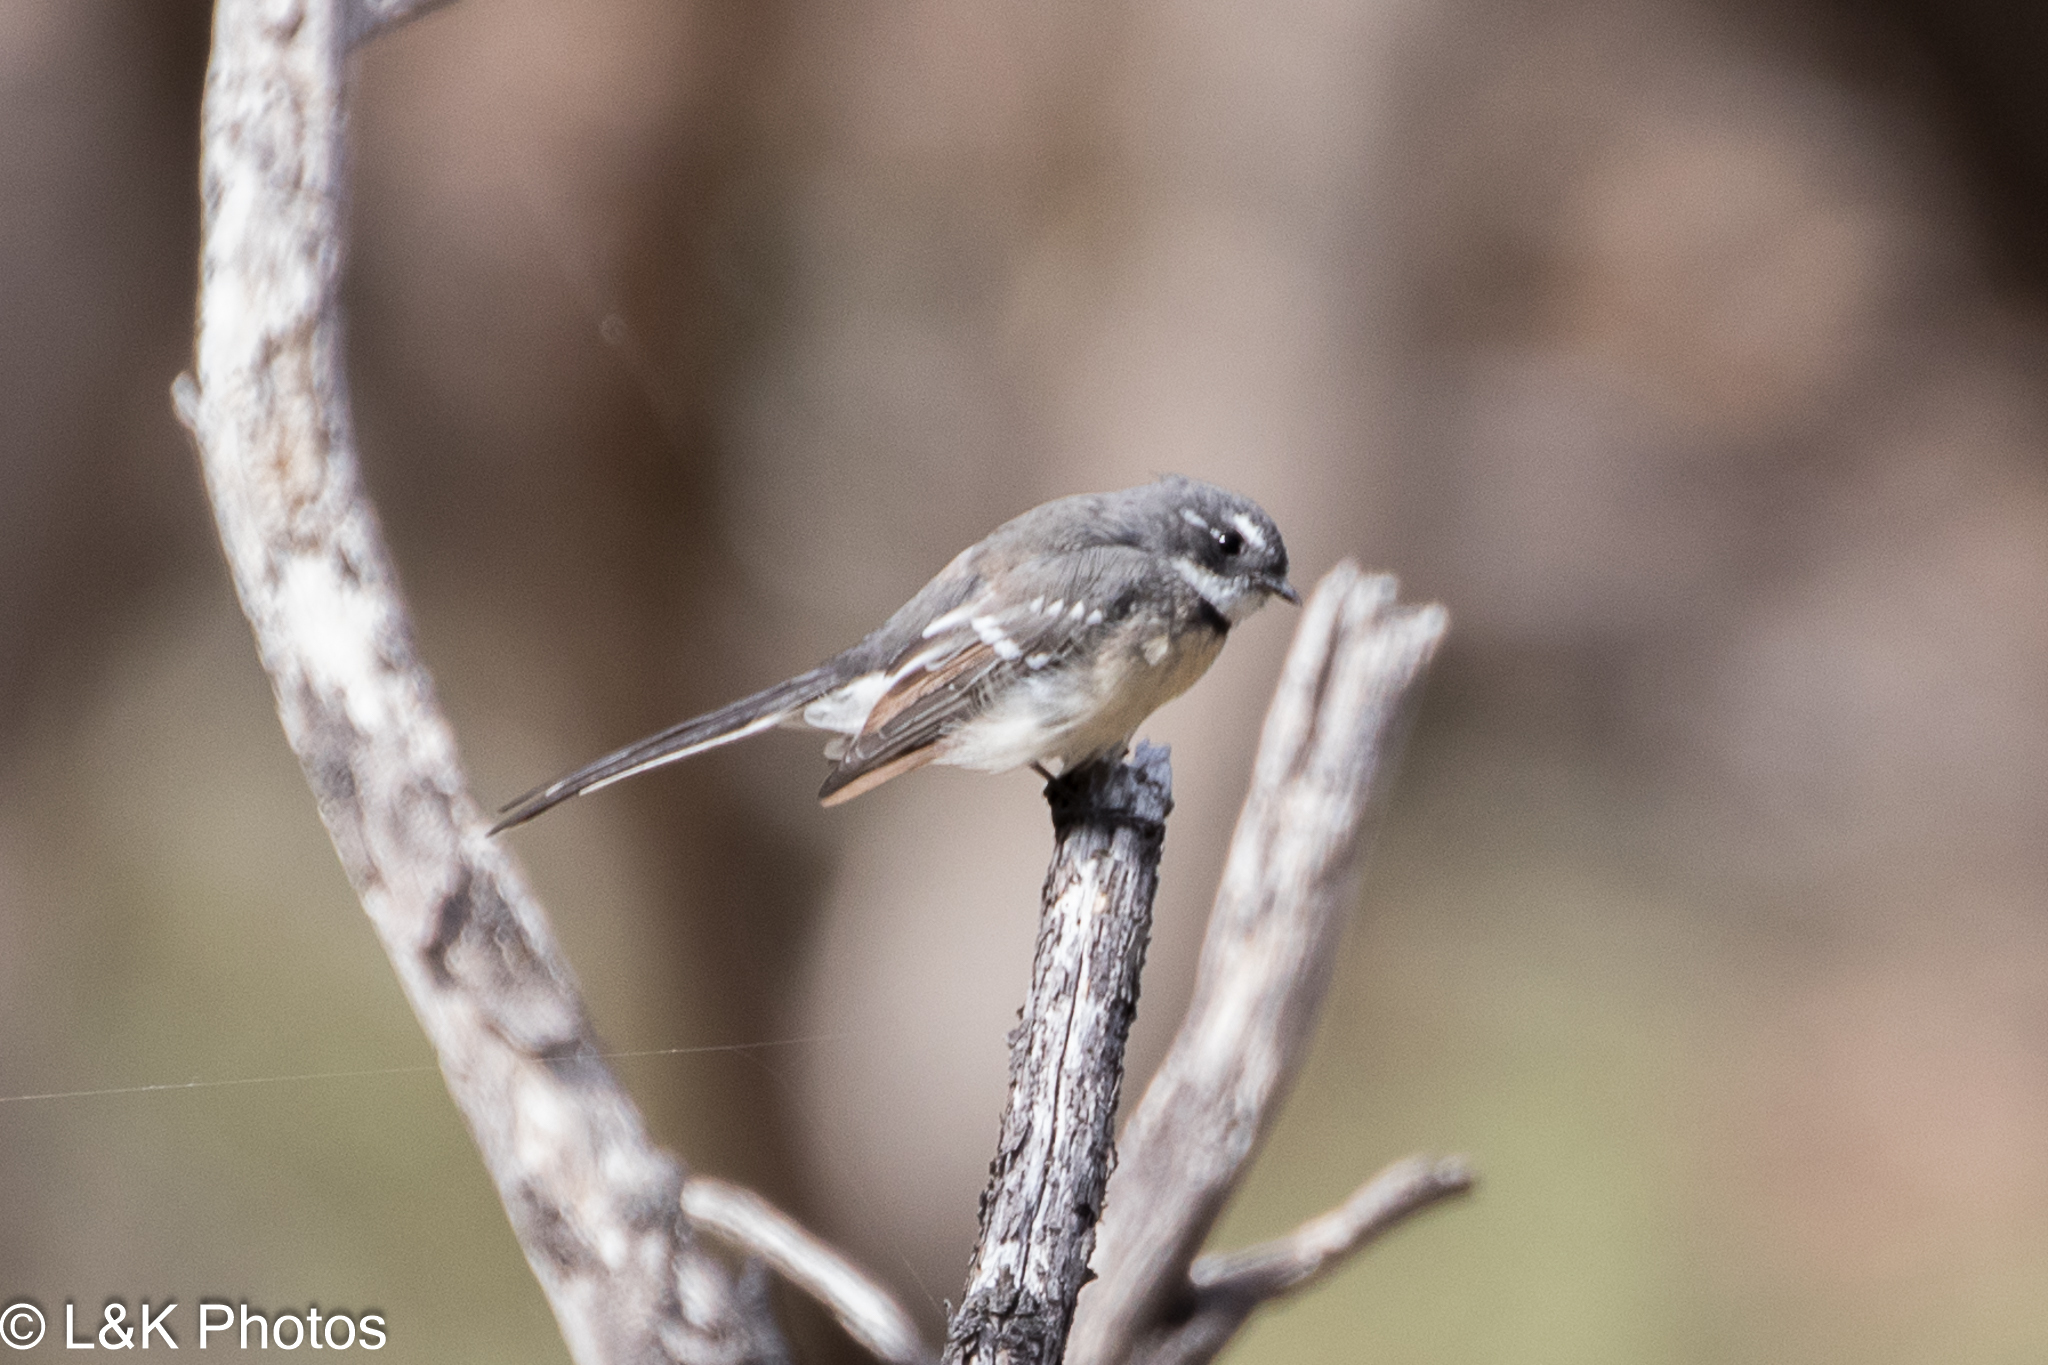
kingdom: Animalia
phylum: Chordata
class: Aves
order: Passeriformes
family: Rhipiduridae
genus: Rhipidura
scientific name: Rhipidura albiscapa
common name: Grey fantail
